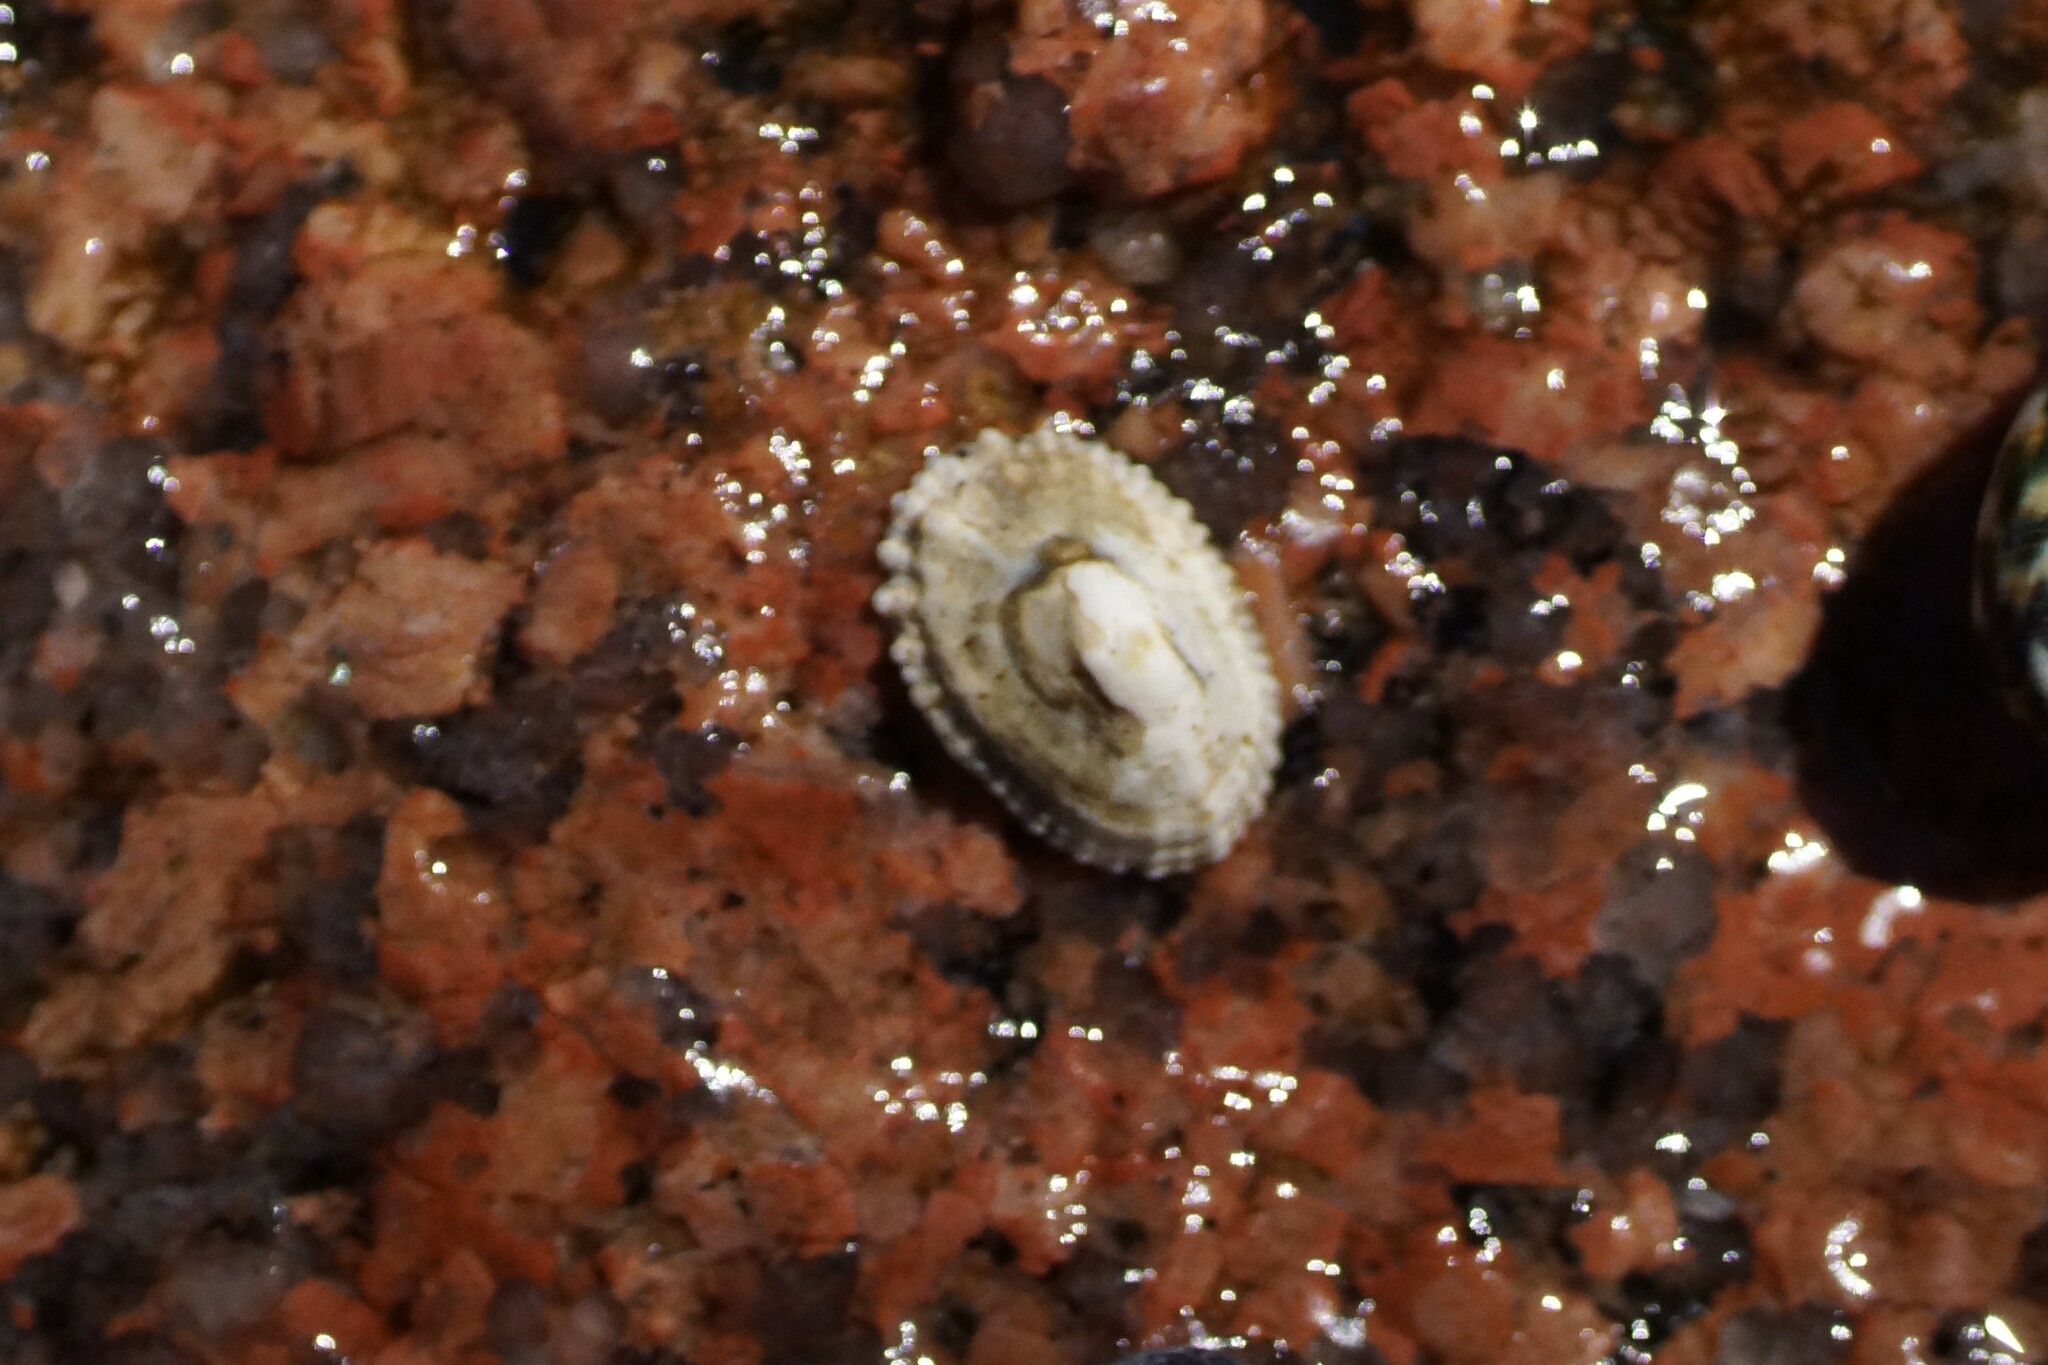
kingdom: Animalia
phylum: Mollusca
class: Gastropoda
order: Lepetellida
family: Fissurellidae
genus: Montfortula
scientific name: Montfortula rugosa
